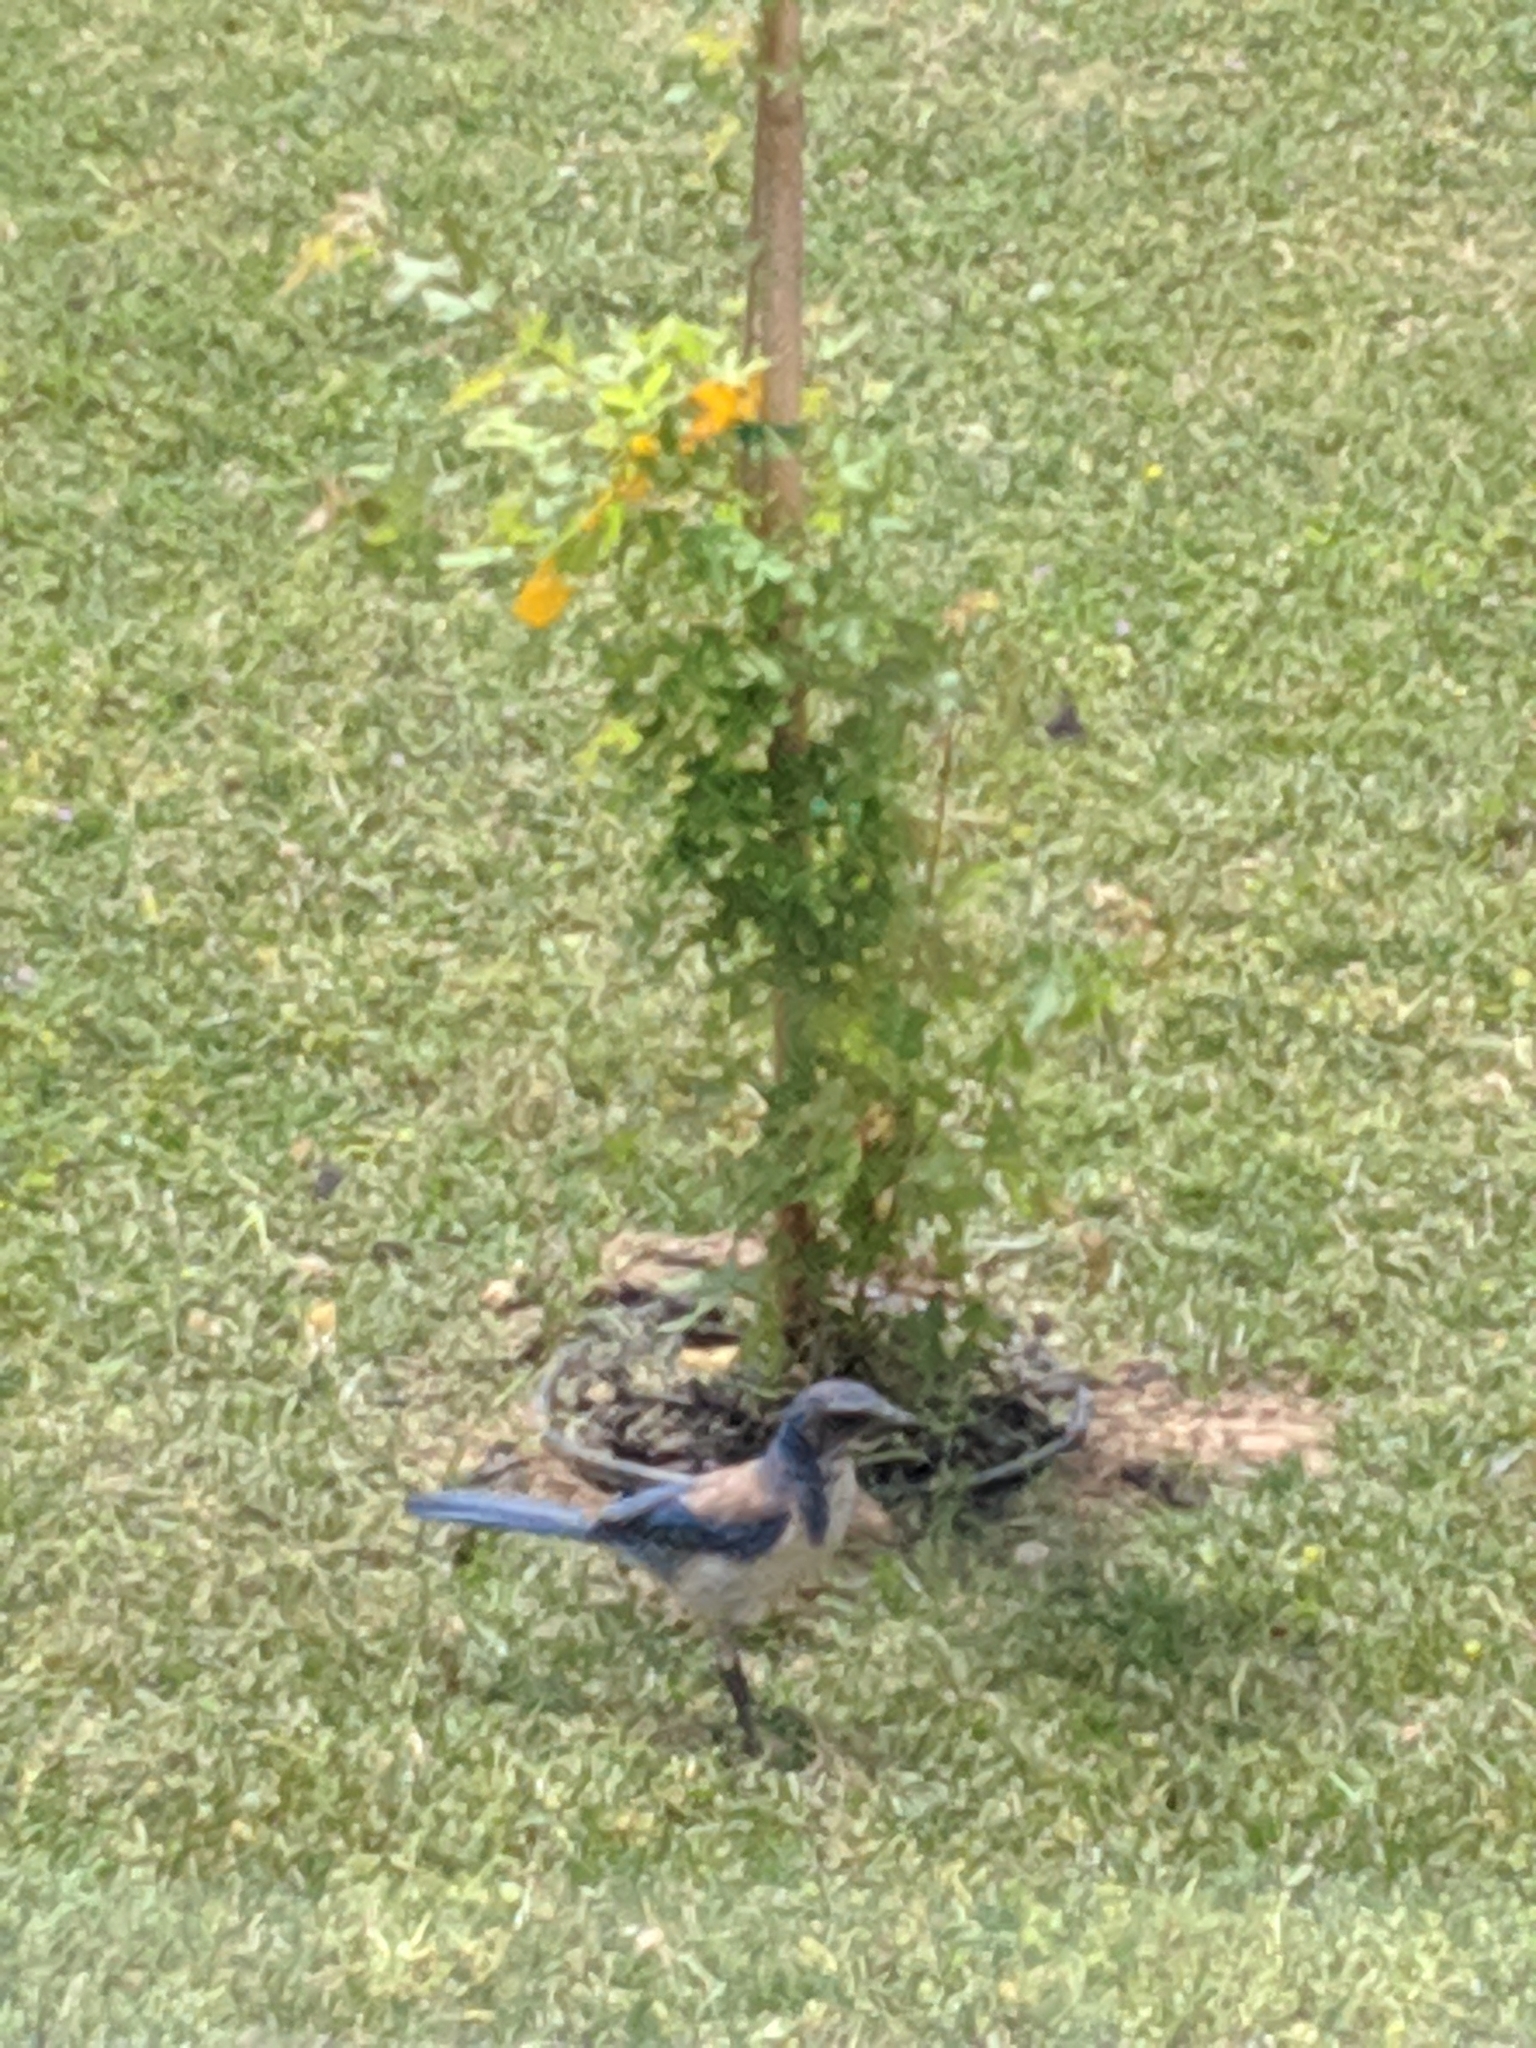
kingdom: Animalia
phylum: Chordata
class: Aves
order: Passeriformes
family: Corvidae
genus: Aphelocoma
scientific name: Aphelocoma californica
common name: California scrub-jay
